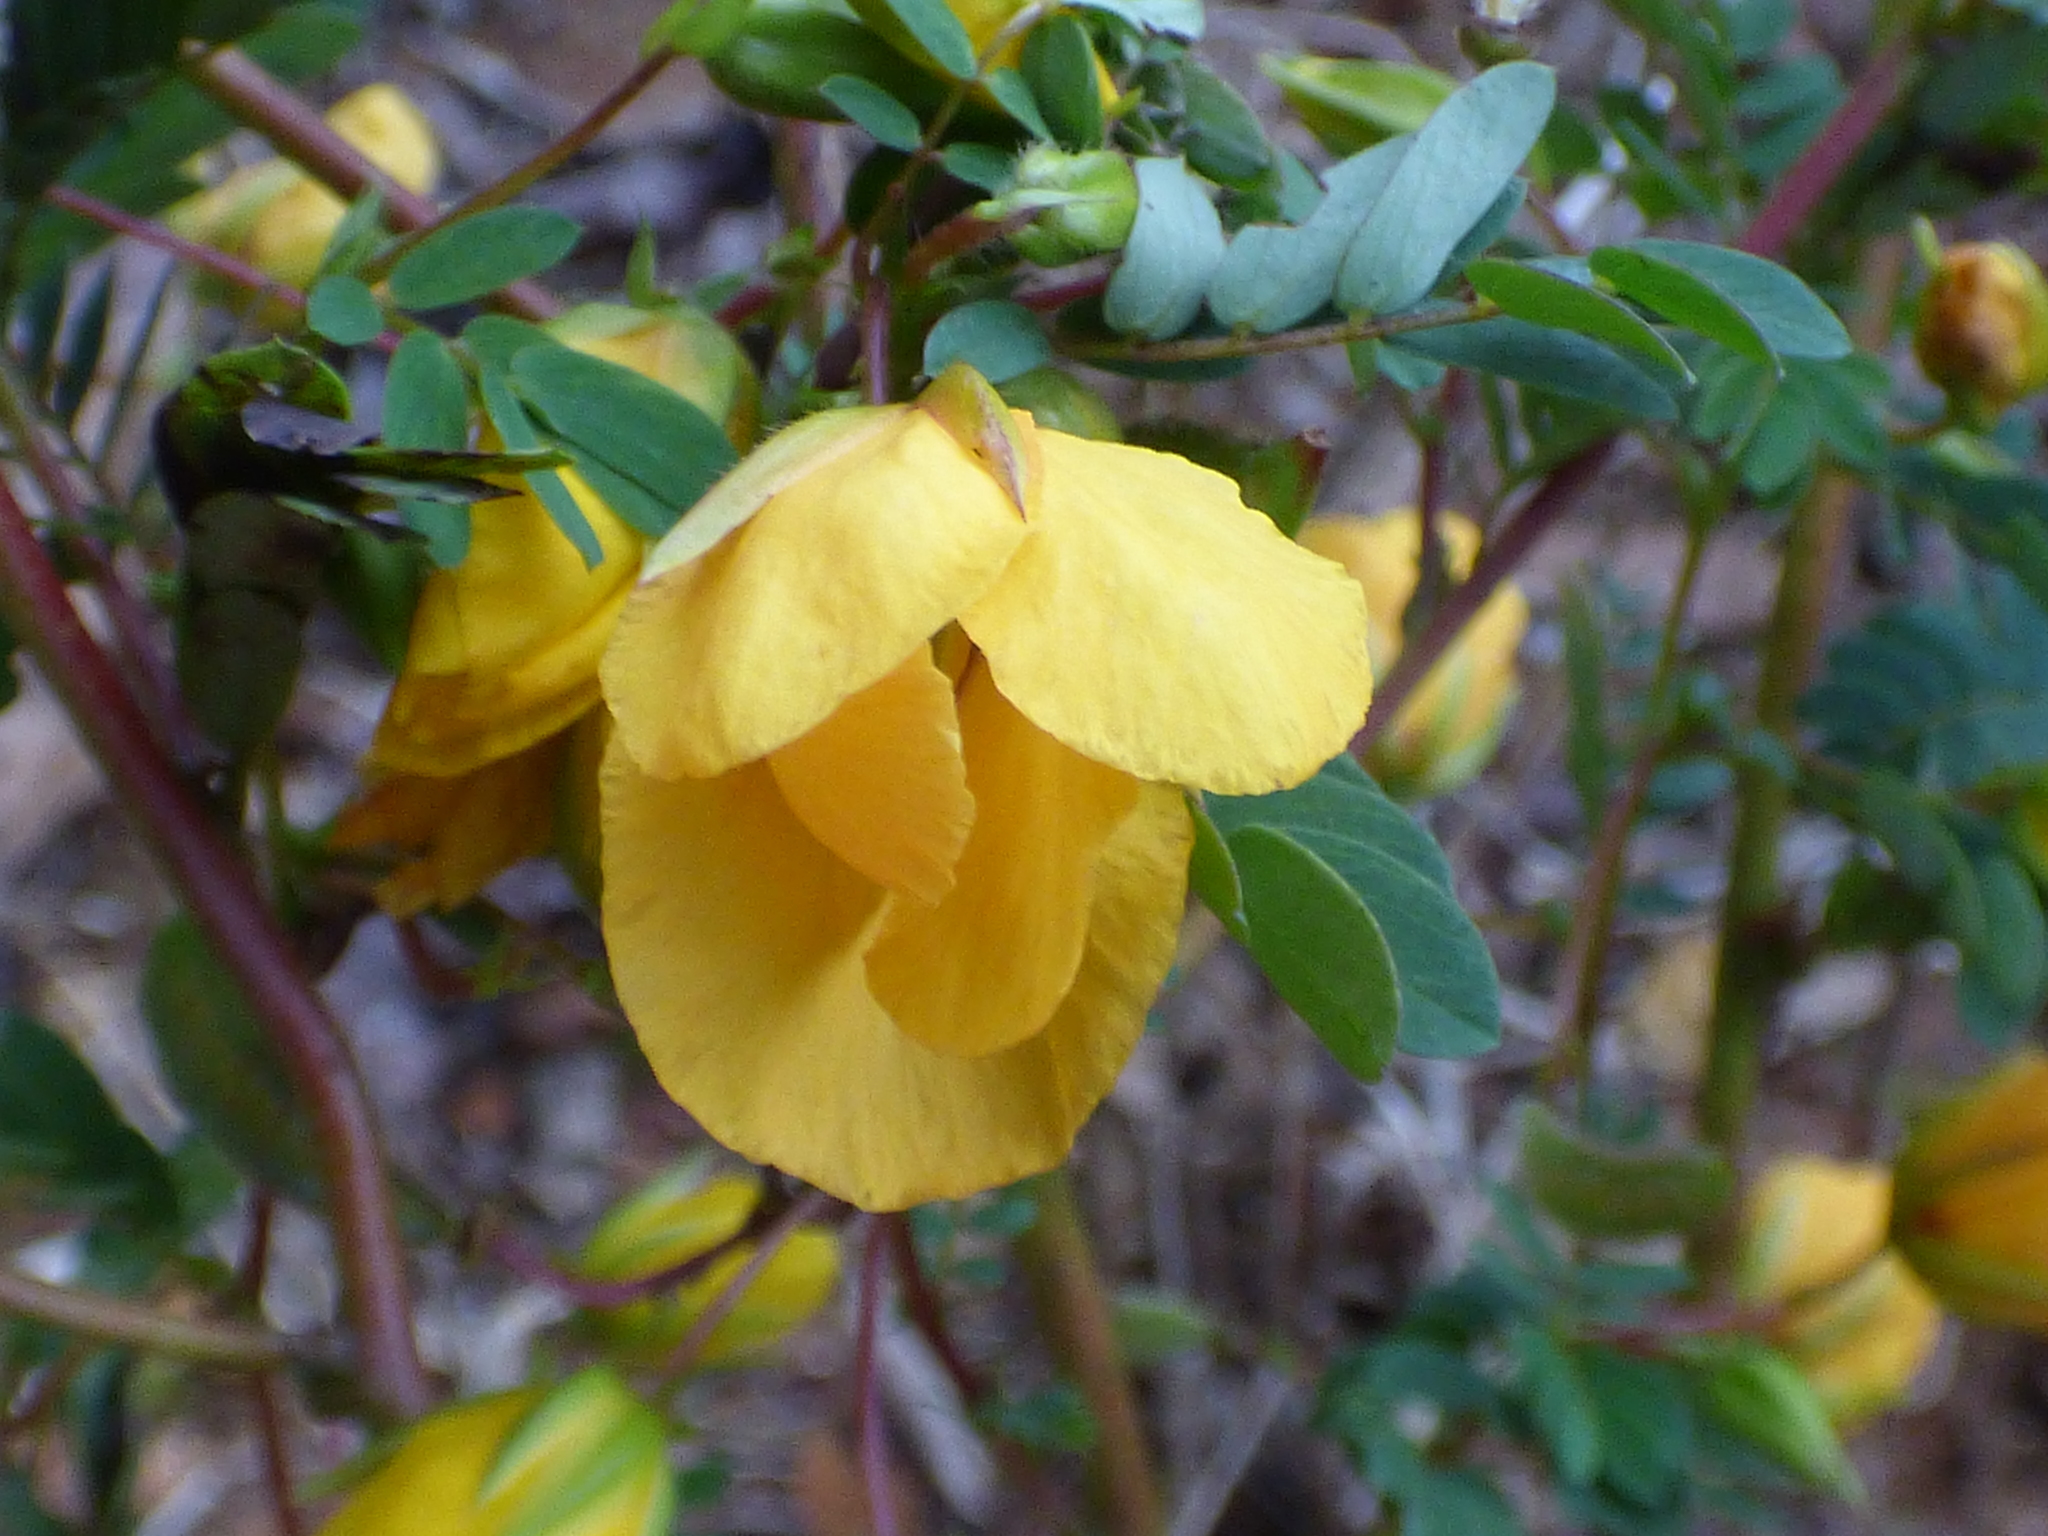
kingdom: Plantae
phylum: Tracheophyta
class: Magnoliopsida
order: Fabales
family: Fabaceae
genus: Chamaecrista
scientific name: Chamaecrista fasciculata
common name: Golden cassia
